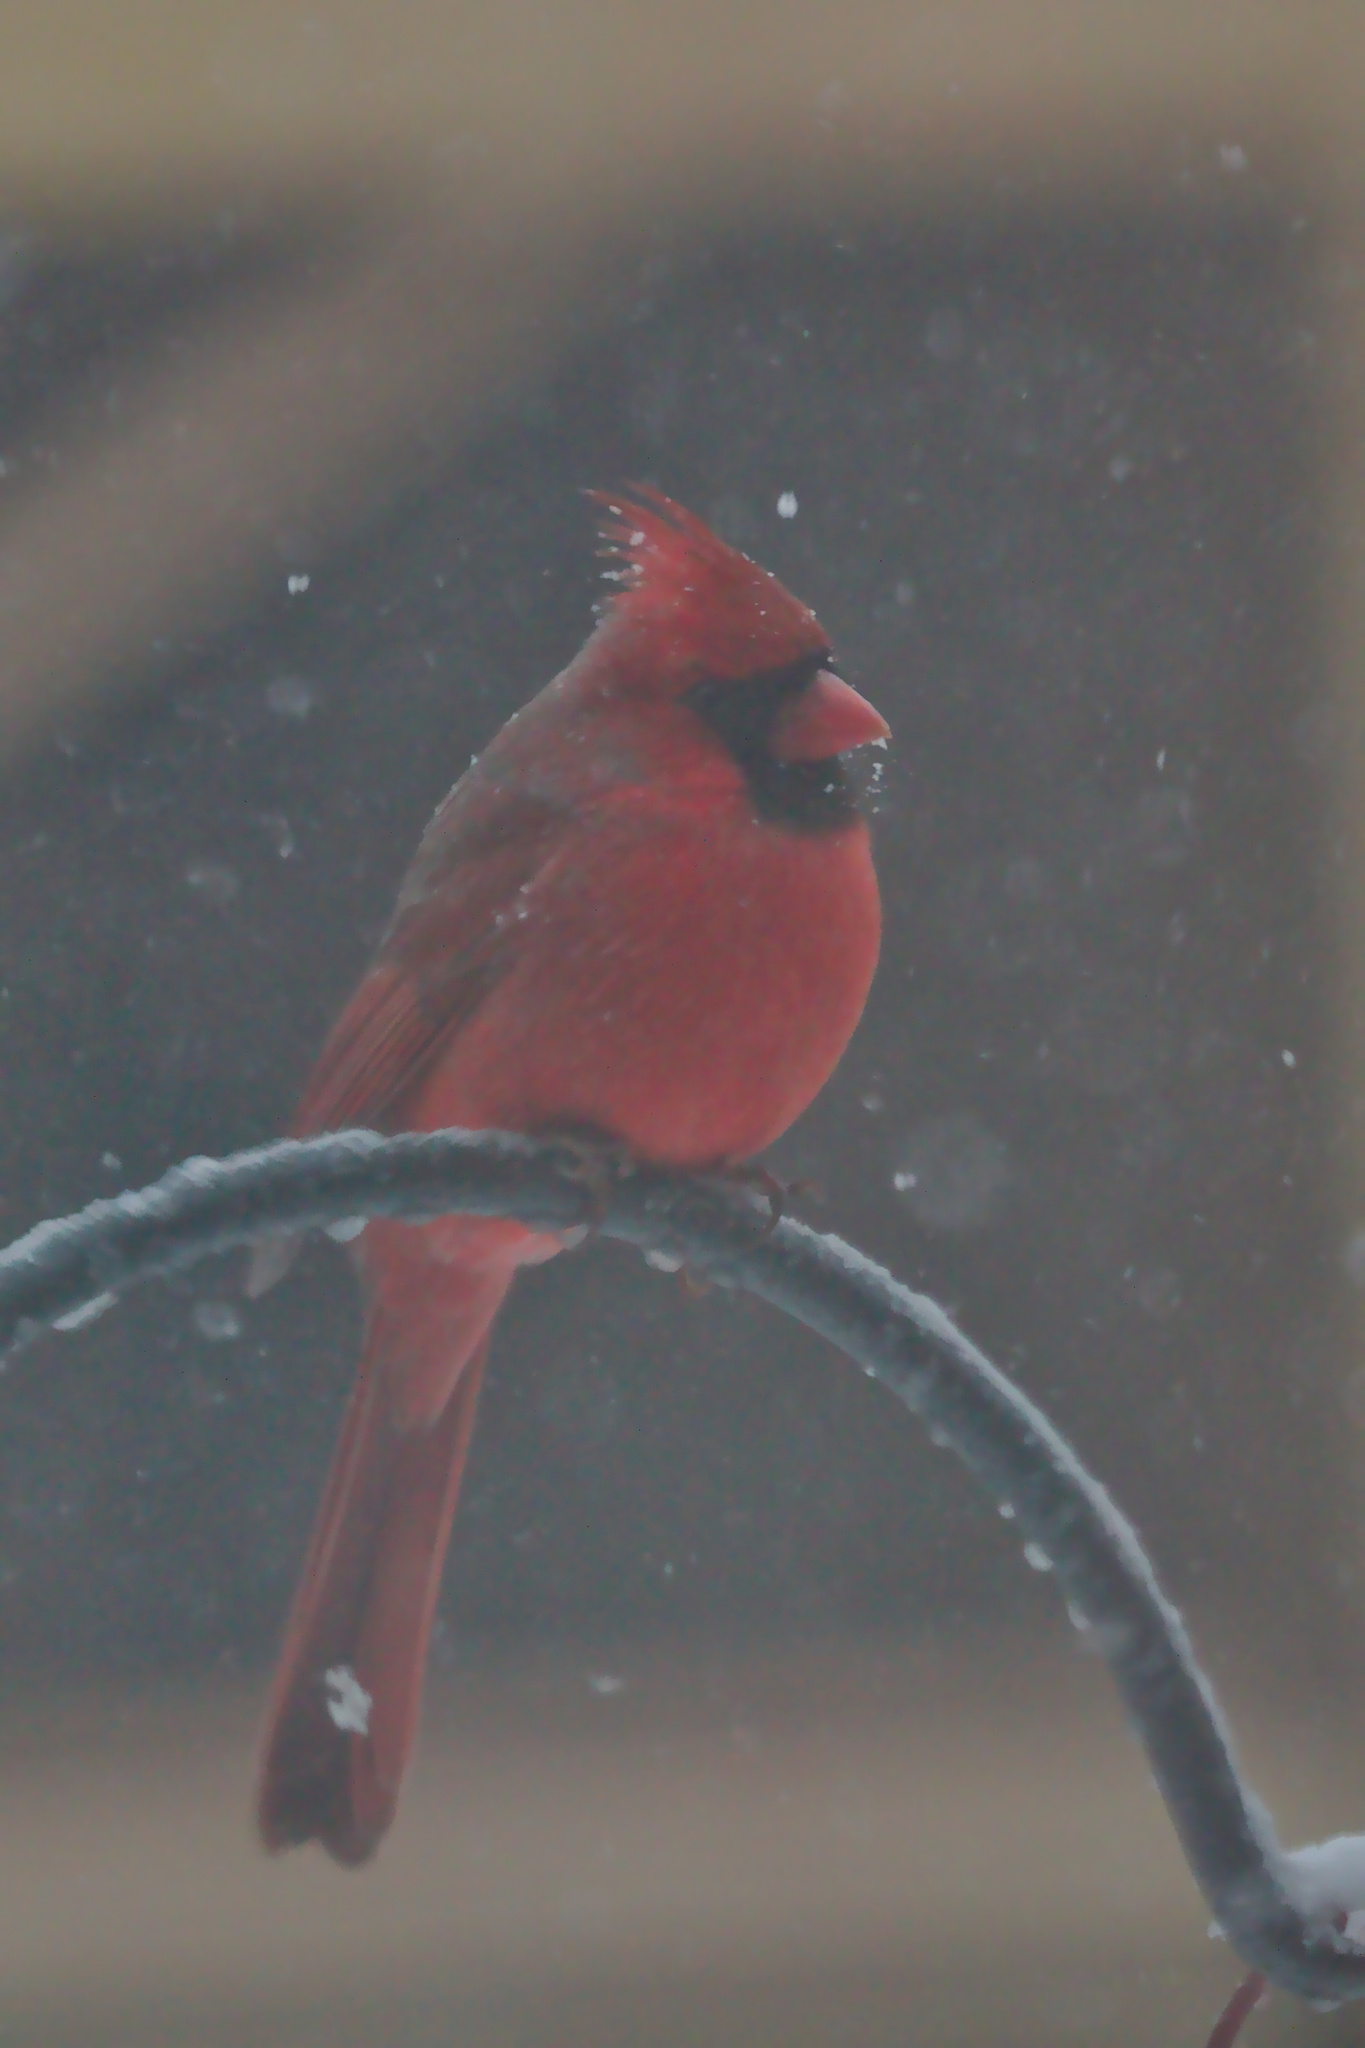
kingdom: Animalia
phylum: Chordata
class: Aves
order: Passeriformes
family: Cardinalidae
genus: Cardinalis
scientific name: Cardinalis cardinalis
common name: Northern cardinal
